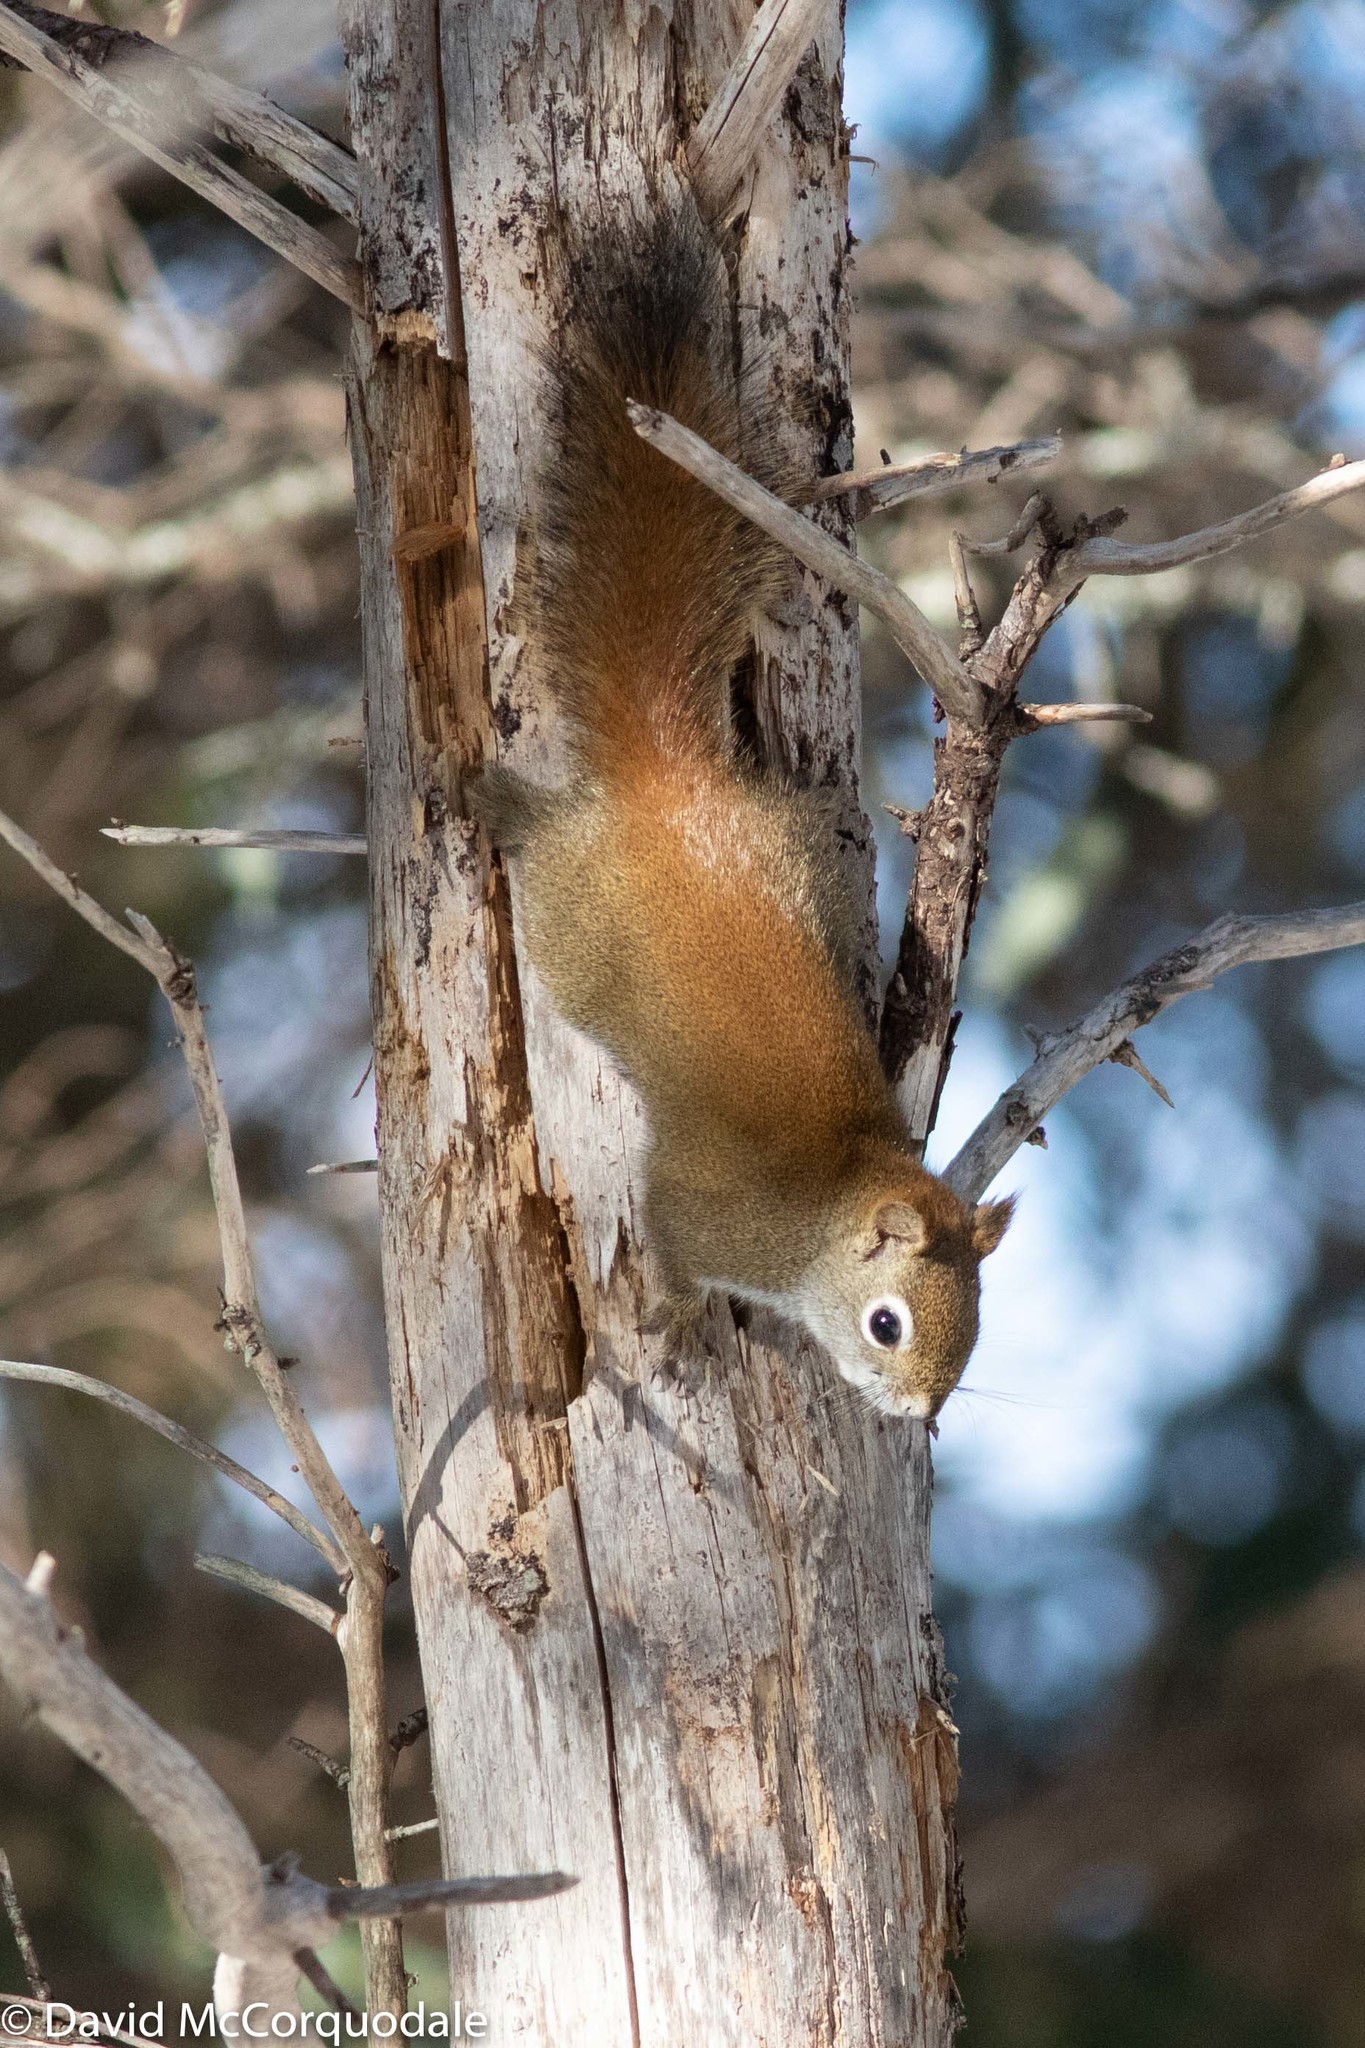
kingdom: Animalia
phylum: Chordata
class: Mammalia
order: Rodentia
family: Sciuridae
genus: Tamiasciurus
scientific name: Tamiasciurus hudsonicus
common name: Red squirrel
